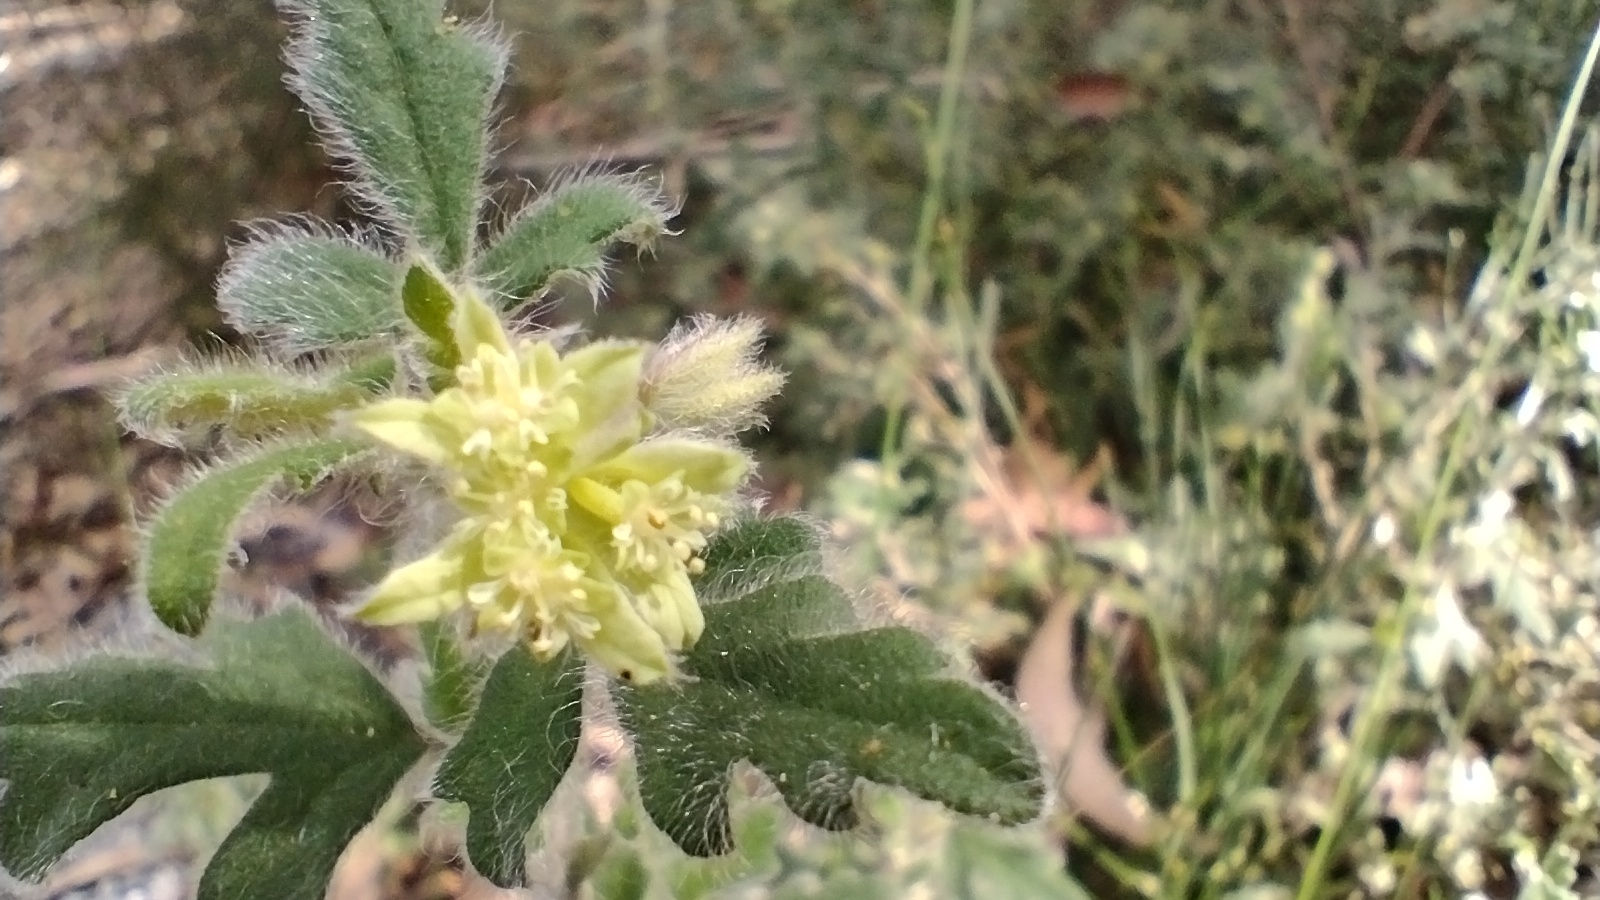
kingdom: Plantae
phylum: Tracheophyta
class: Magnoliopsida
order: Apiales
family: Apiaceae
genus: Xanthosia
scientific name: Xanthosia pilosa
